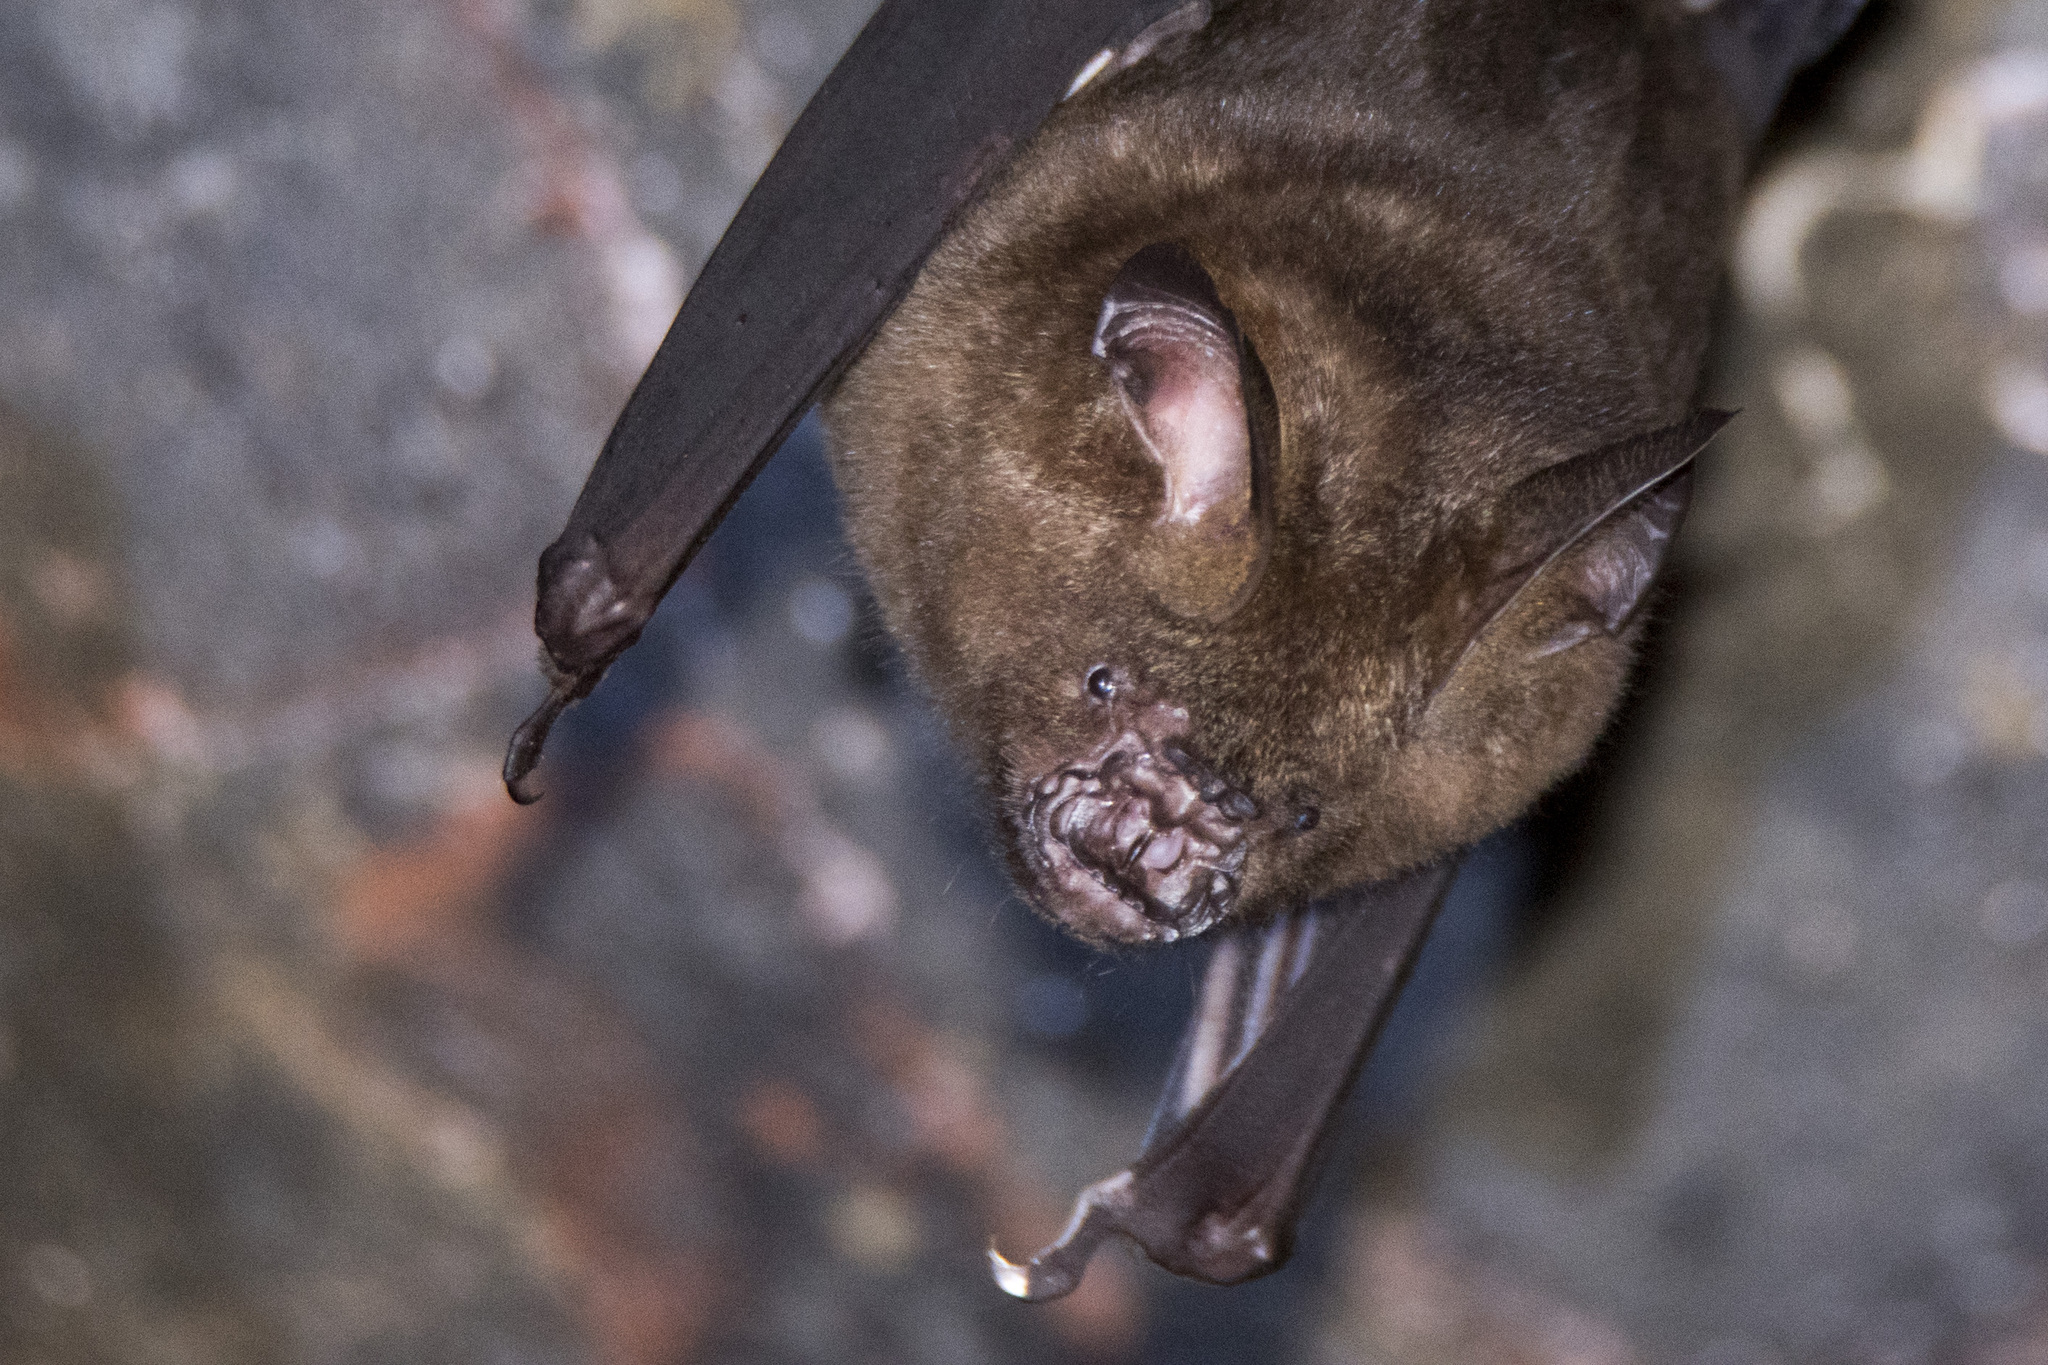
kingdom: Animalia
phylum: Chordata
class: Mammalia
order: Chiroptera
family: Hipposideridae
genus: Hipposideros
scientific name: Hipposideros armiger
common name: Great leaf-nosed bat
